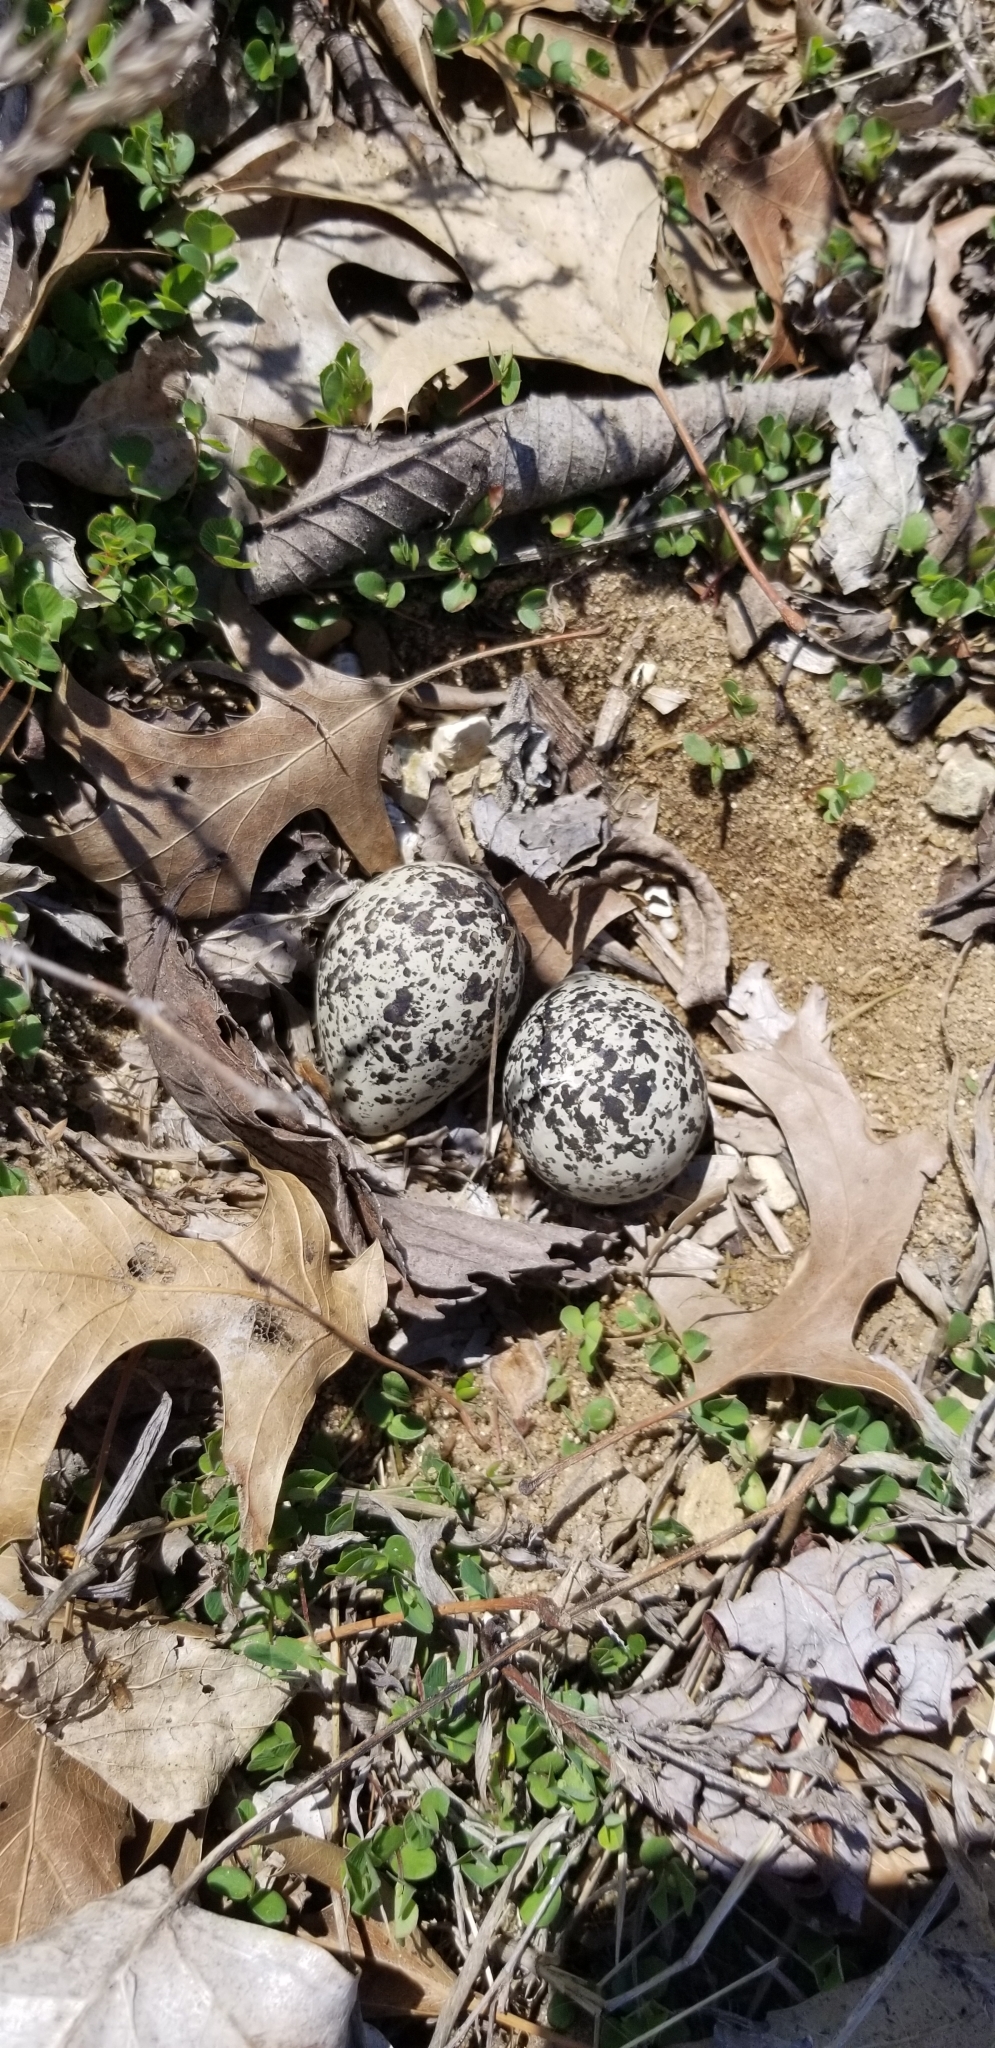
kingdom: Animalia
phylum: Chordata
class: Aves
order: Charadriiformes
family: Charadriidae
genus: Charadrius
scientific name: Charadrius vociferus
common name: Killdeer
